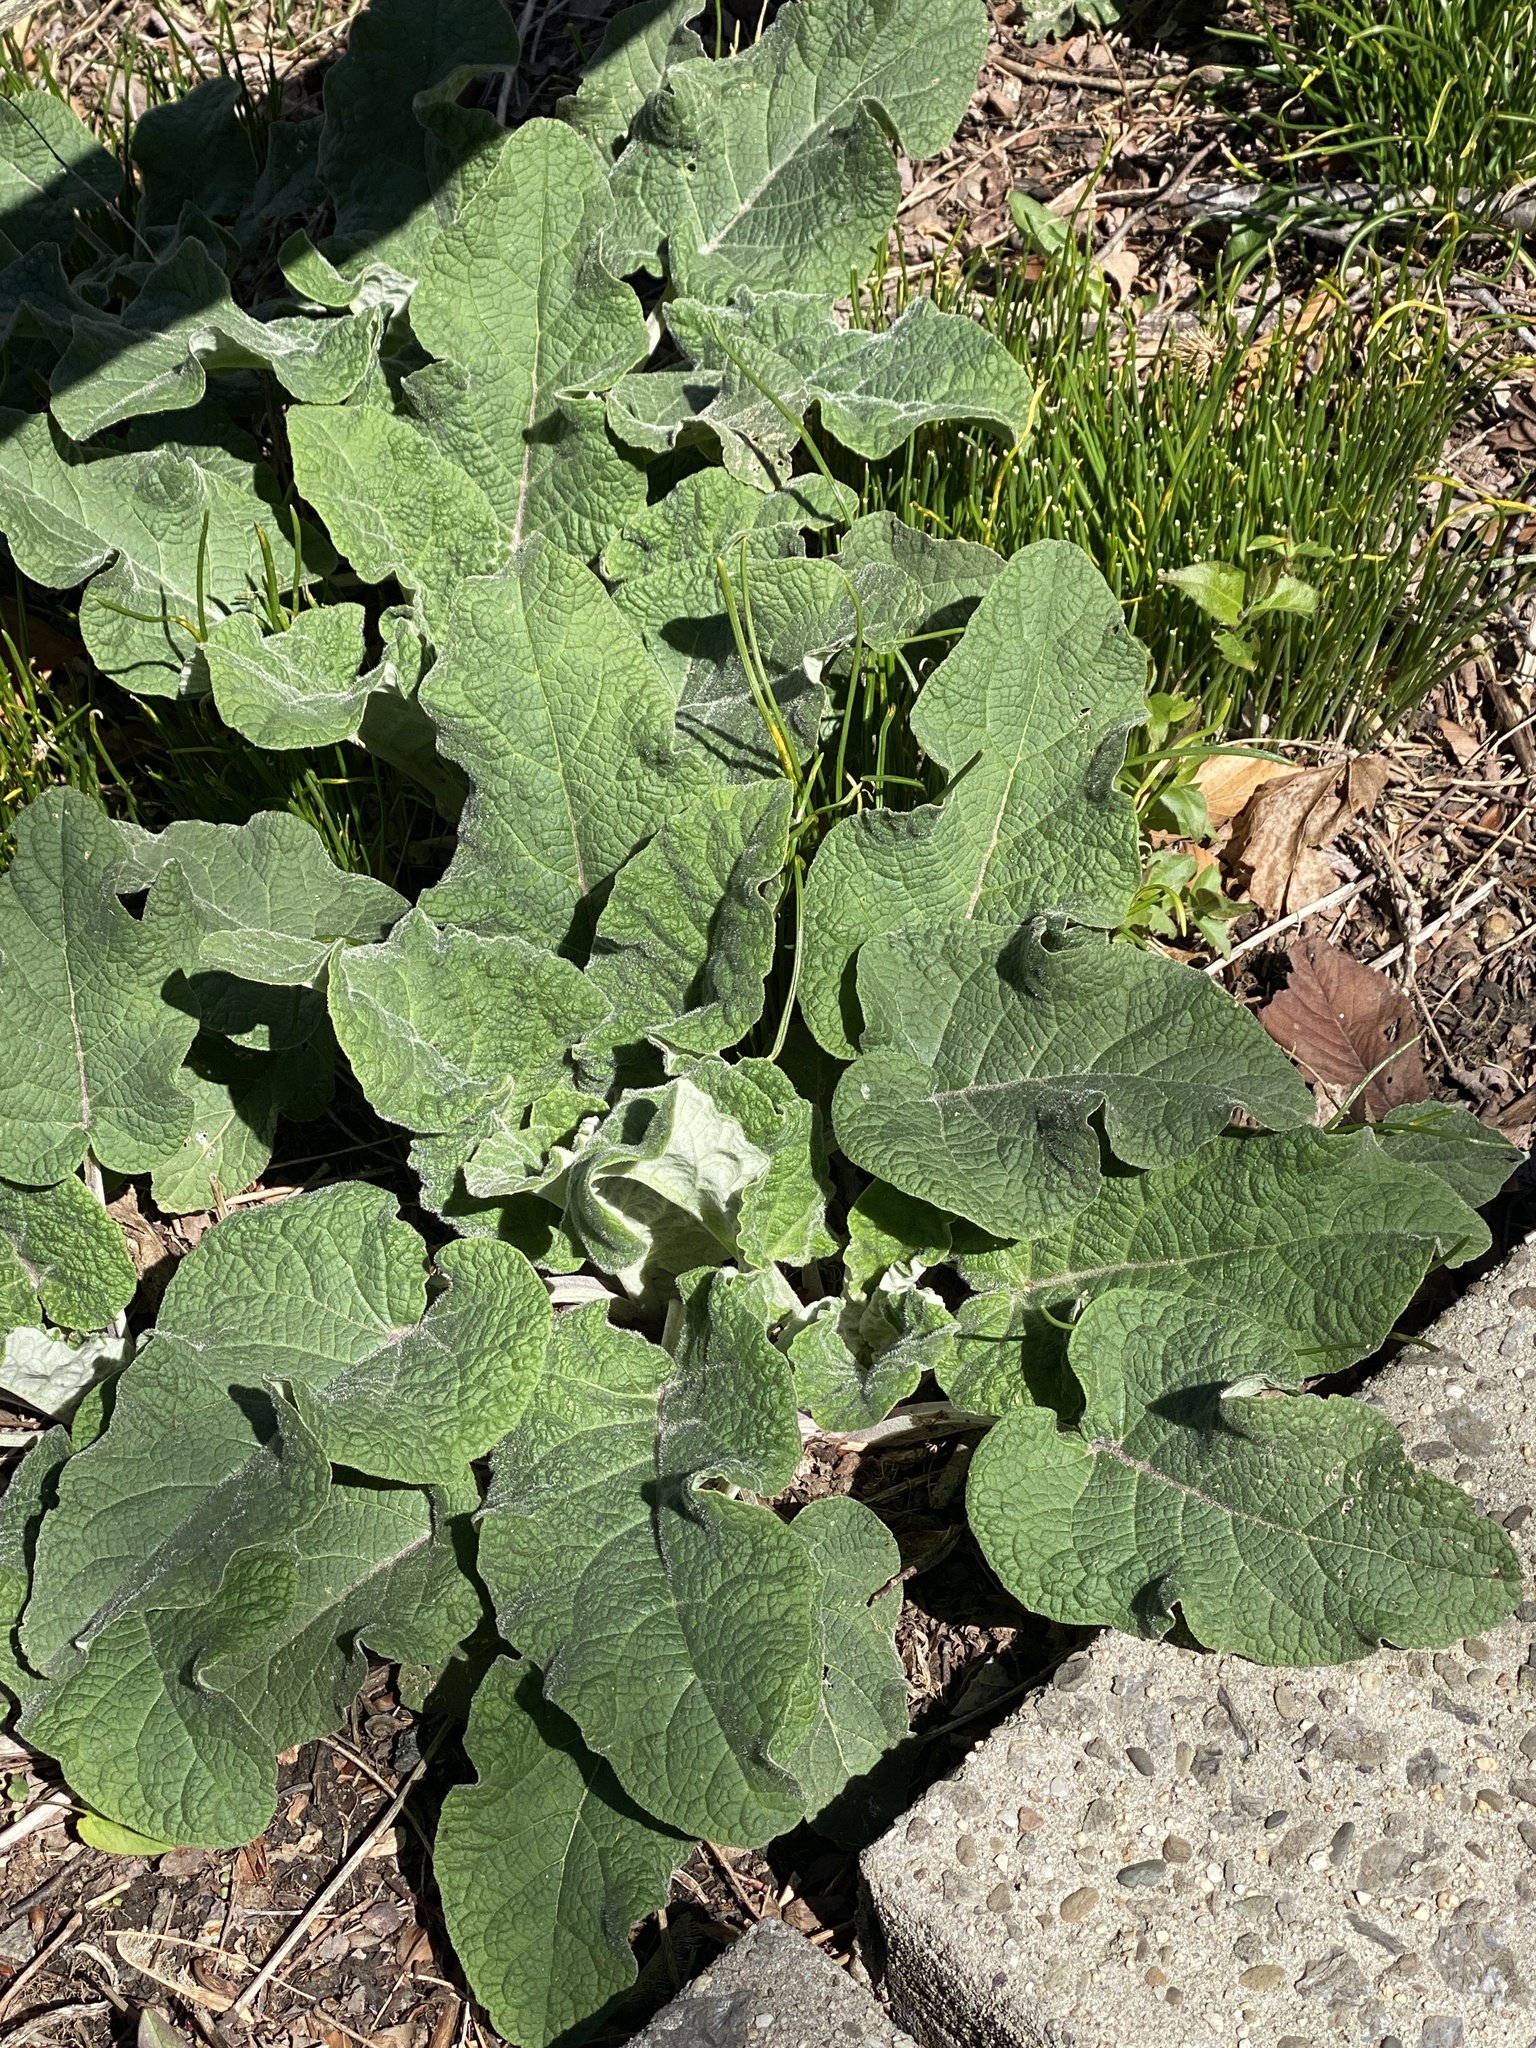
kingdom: Plantae
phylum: Tracheophyta
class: Magnoliopsida
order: Asterales
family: Asteraceae
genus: Arctium
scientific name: Arctium
